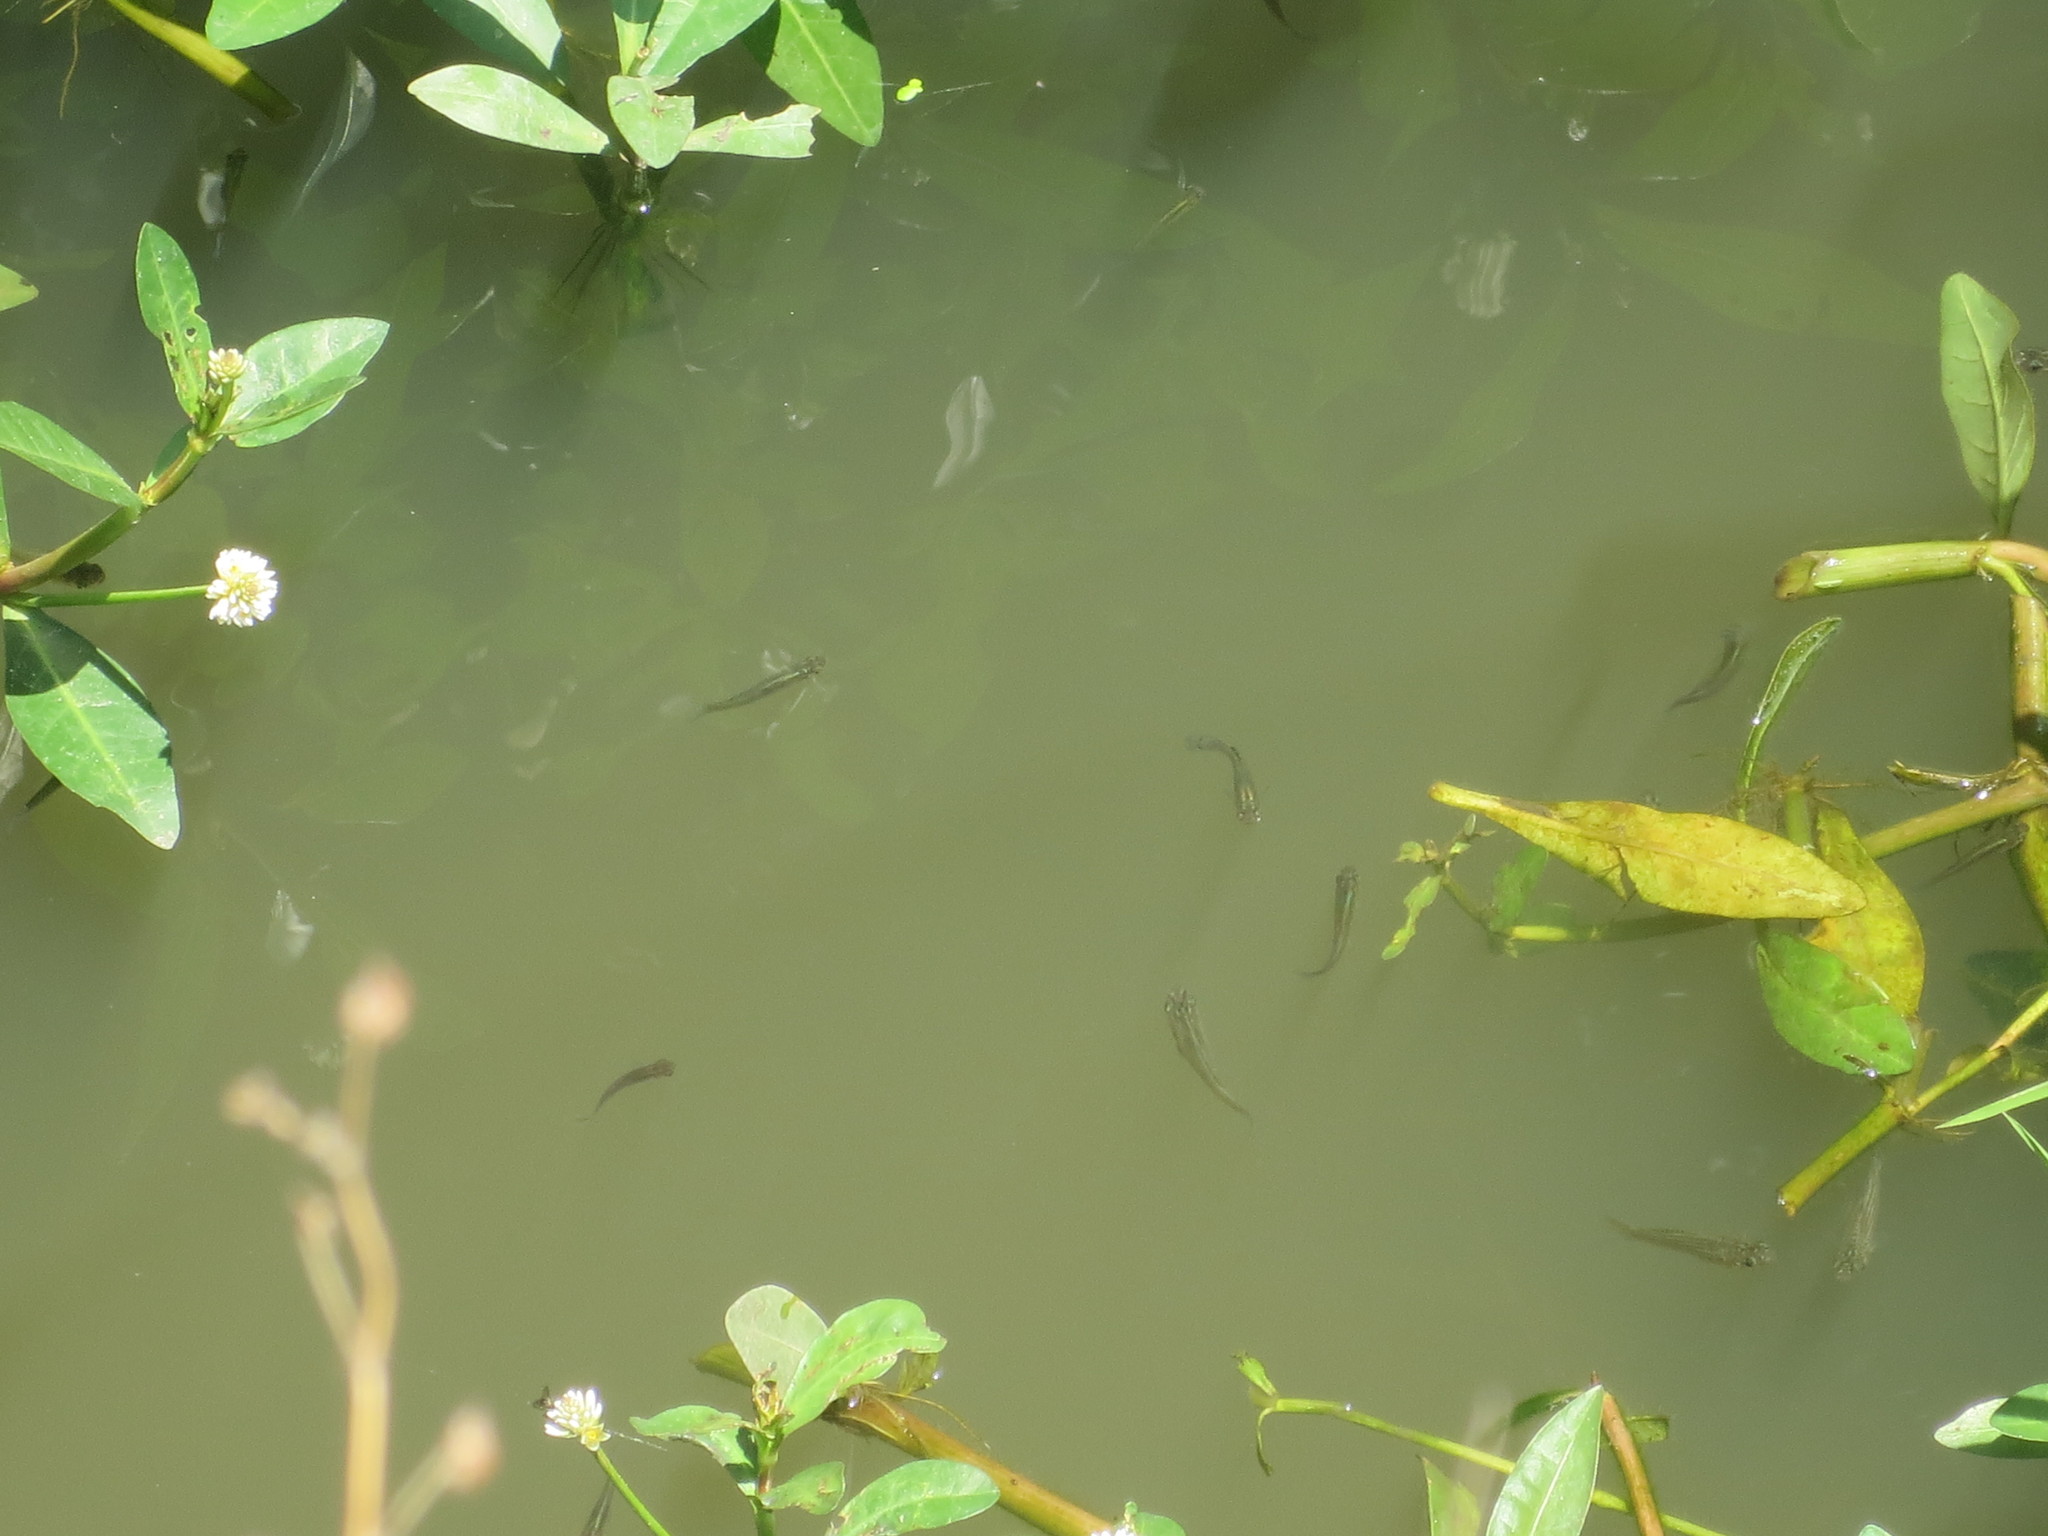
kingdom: Animalia
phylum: Chordata
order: Cyprinodontiformes
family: Poeciliidae
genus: Gambusia
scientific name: Gambusia holbrooki
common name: Eastern mosquitofish
